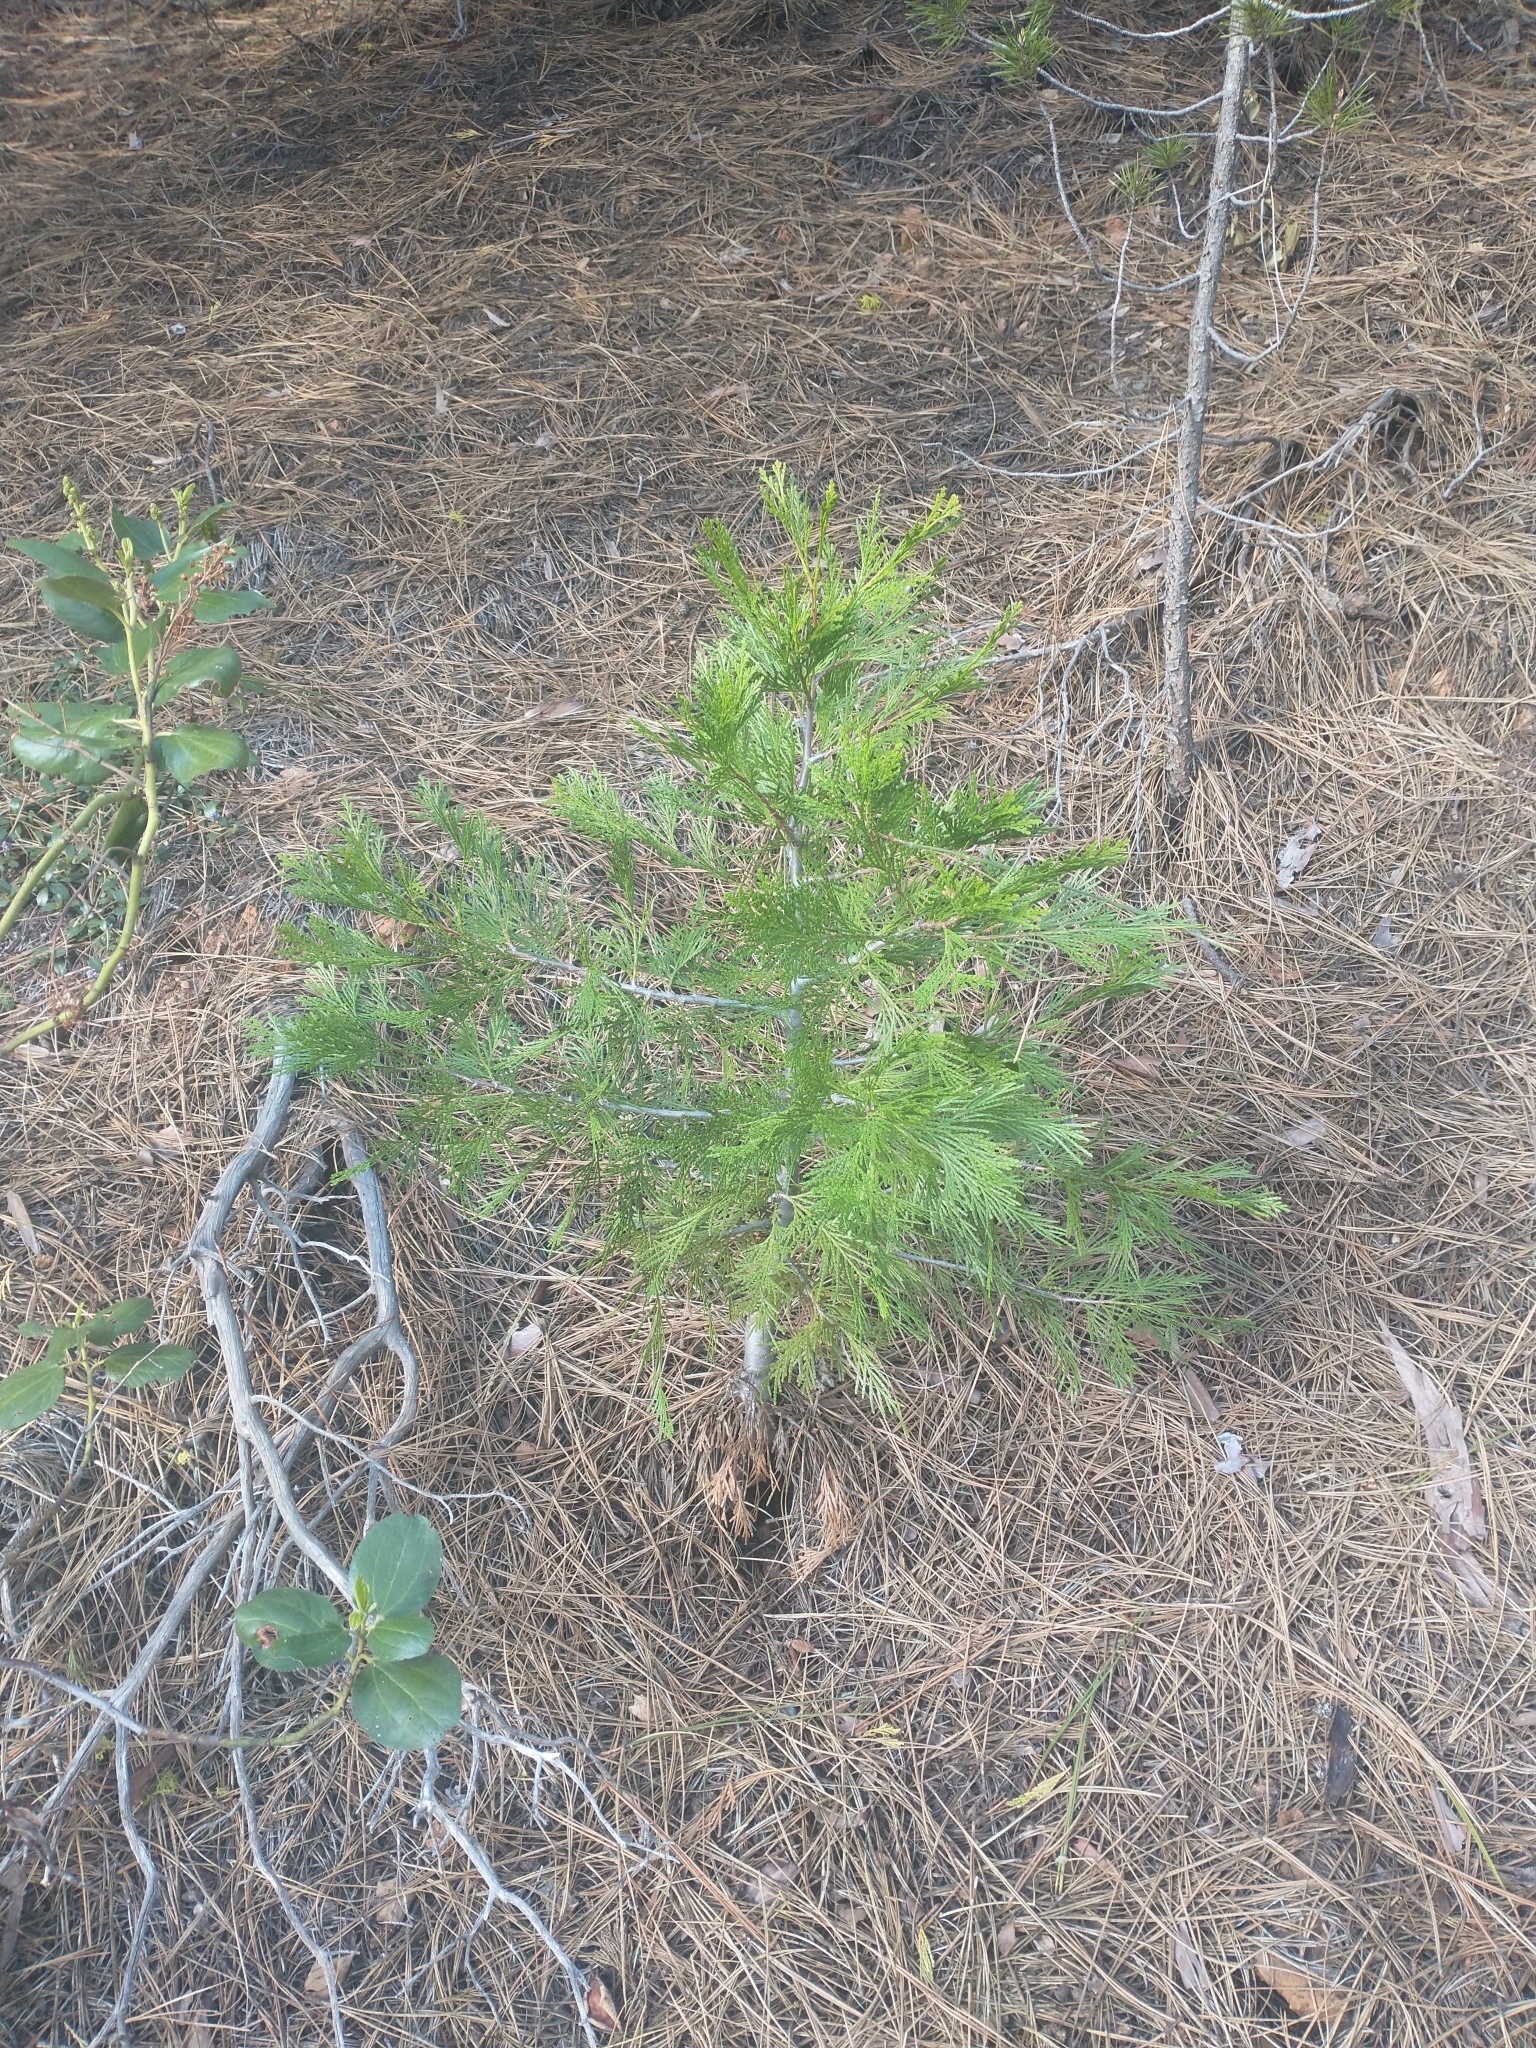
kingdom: Plantae
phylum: Tracheophyta
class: Pinopsida
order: Pinales
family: Cupressaceae
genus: Calocedrus
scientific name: Calocedrus decurrens
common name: Californian incense-cedar
